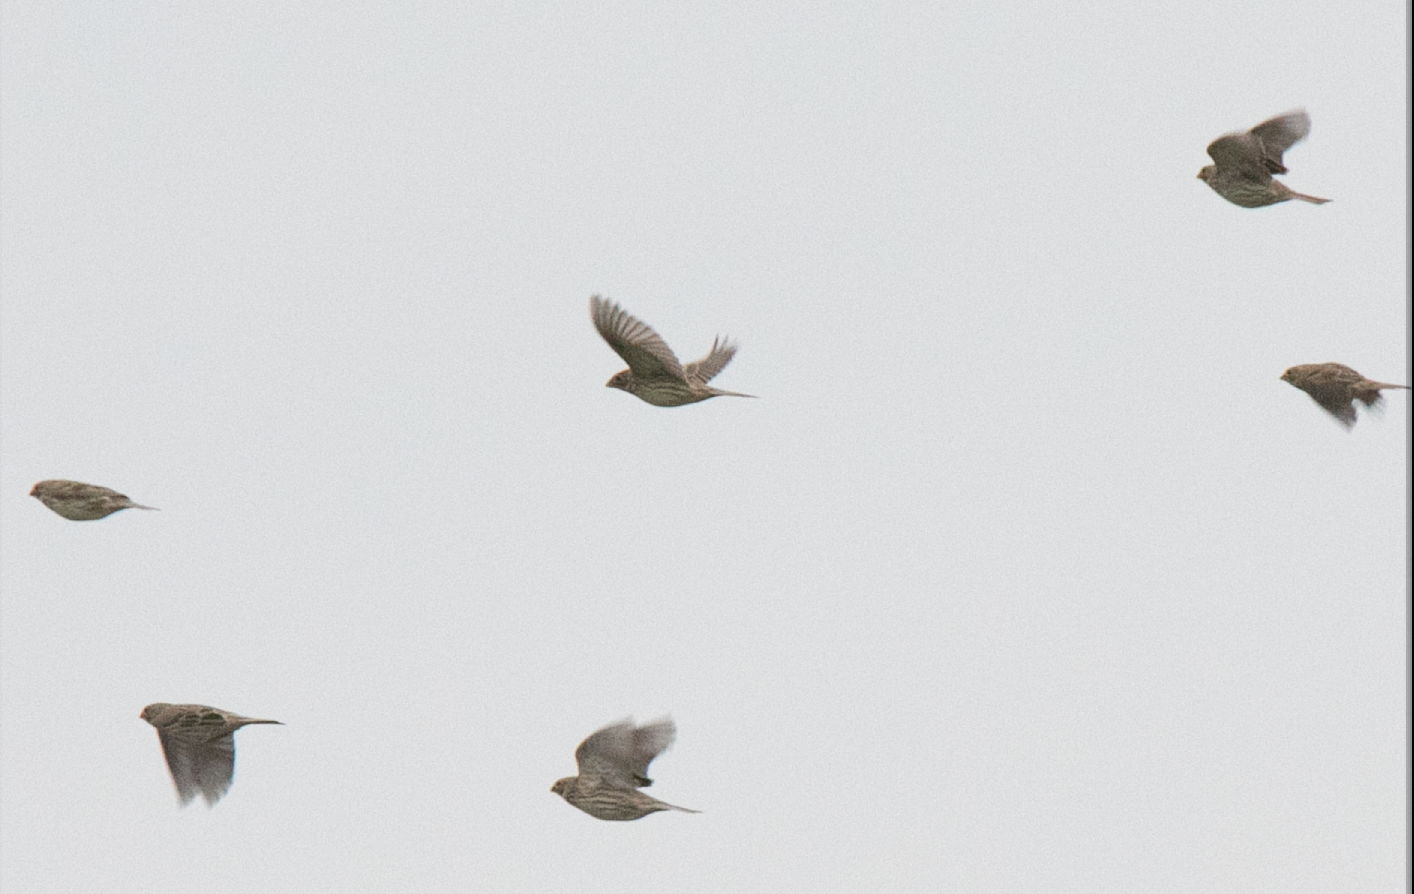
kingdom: Animalia
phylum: Chordata
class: Aves
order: Passeriformes
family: Emberizidae
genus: Emberiza
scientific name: Emberiza calandra
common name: Corn bunting
